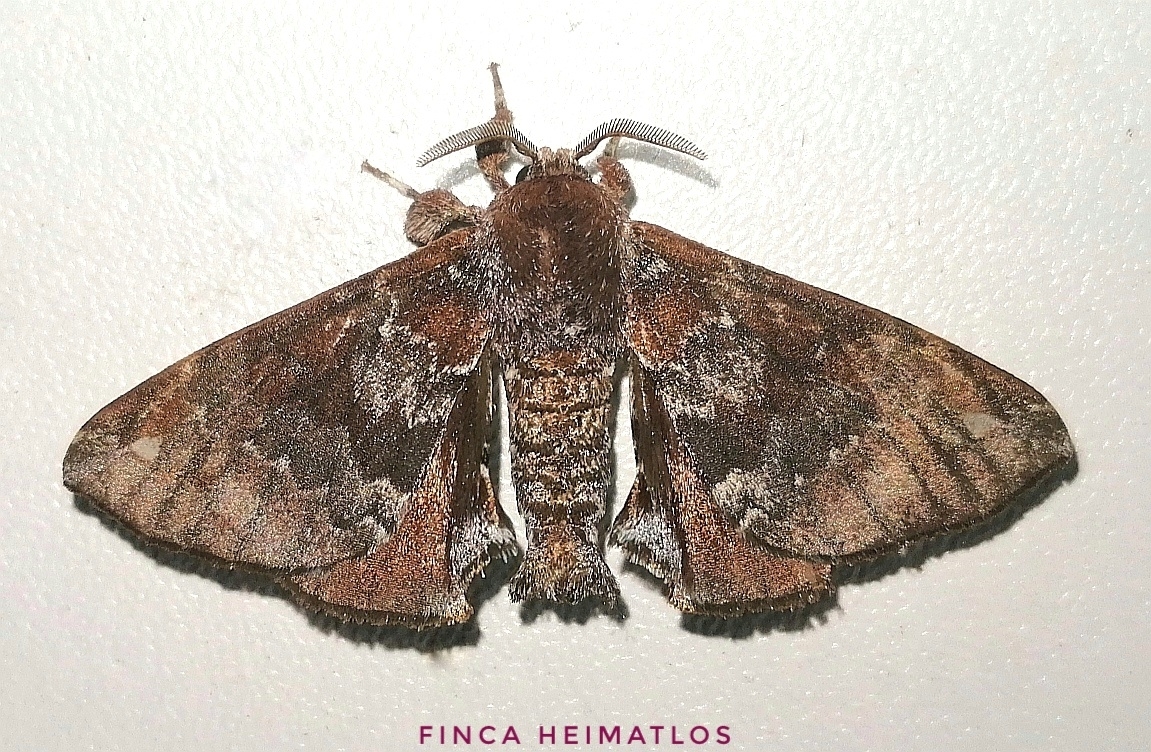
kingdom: Animalia
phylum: Arthropoda
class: Insecta
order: Lepidoptera
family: Apatelodidae
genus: Hygrochroa
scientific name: Hygrochroa Apatelodes albipunctata
